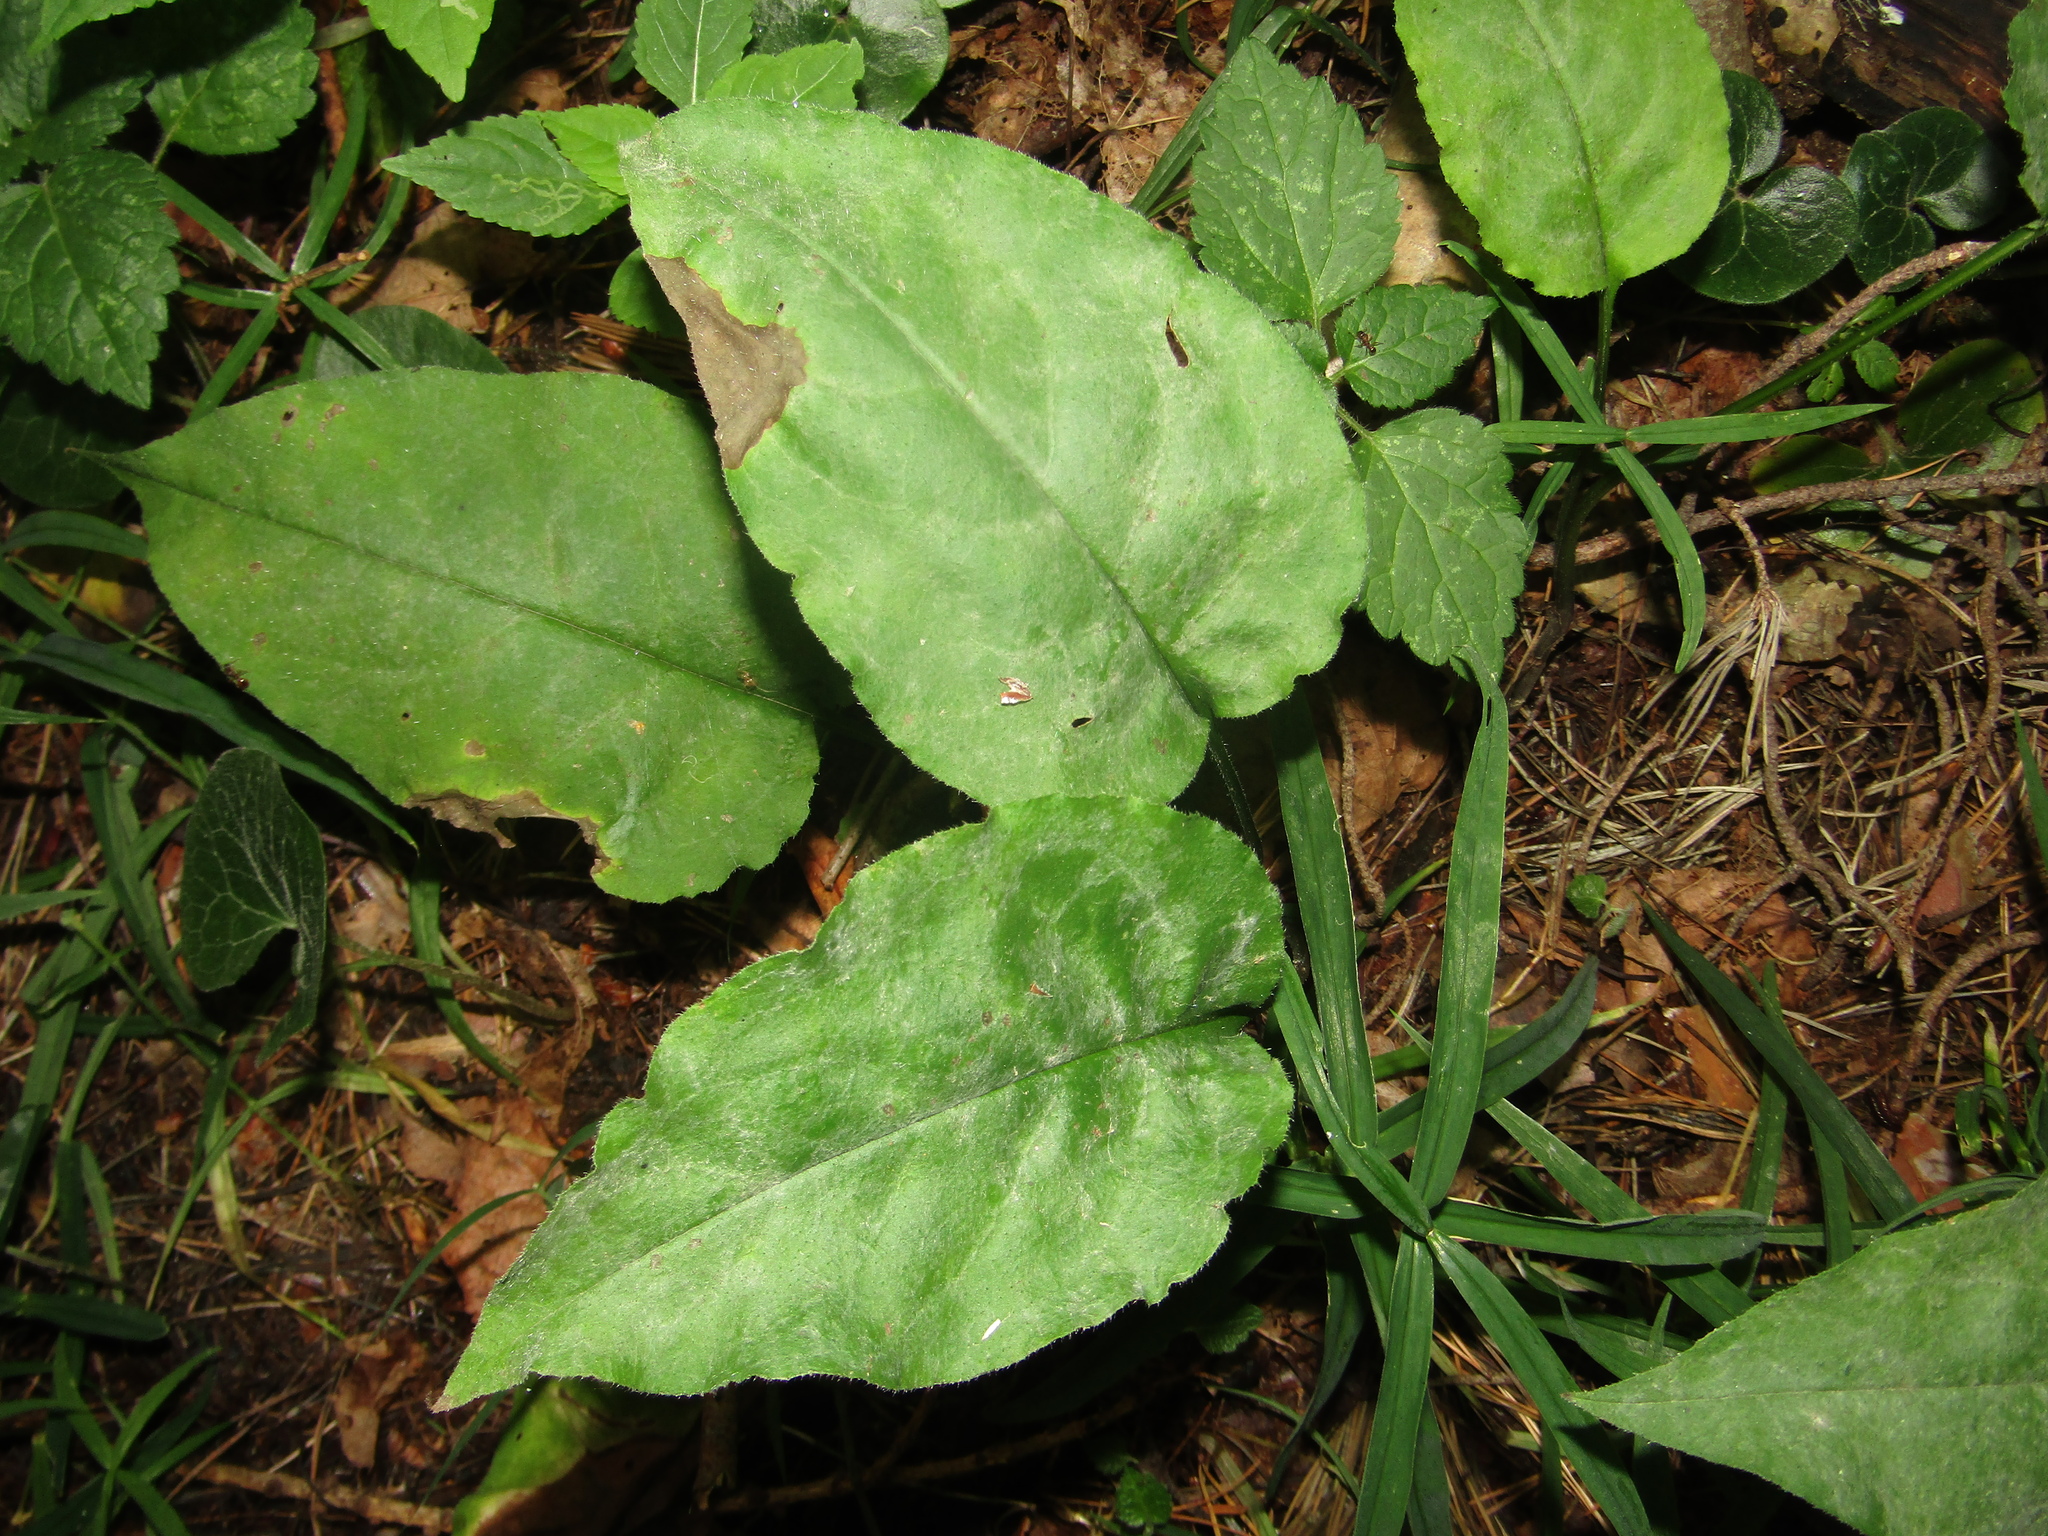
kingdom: Plantae
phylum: Tracheophyta
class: Magnoliopsida
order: Boraginales
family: Boraginaceae
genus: Pulmonaria
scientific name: Pulmonaria obscura
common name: Suffolk lungwort
